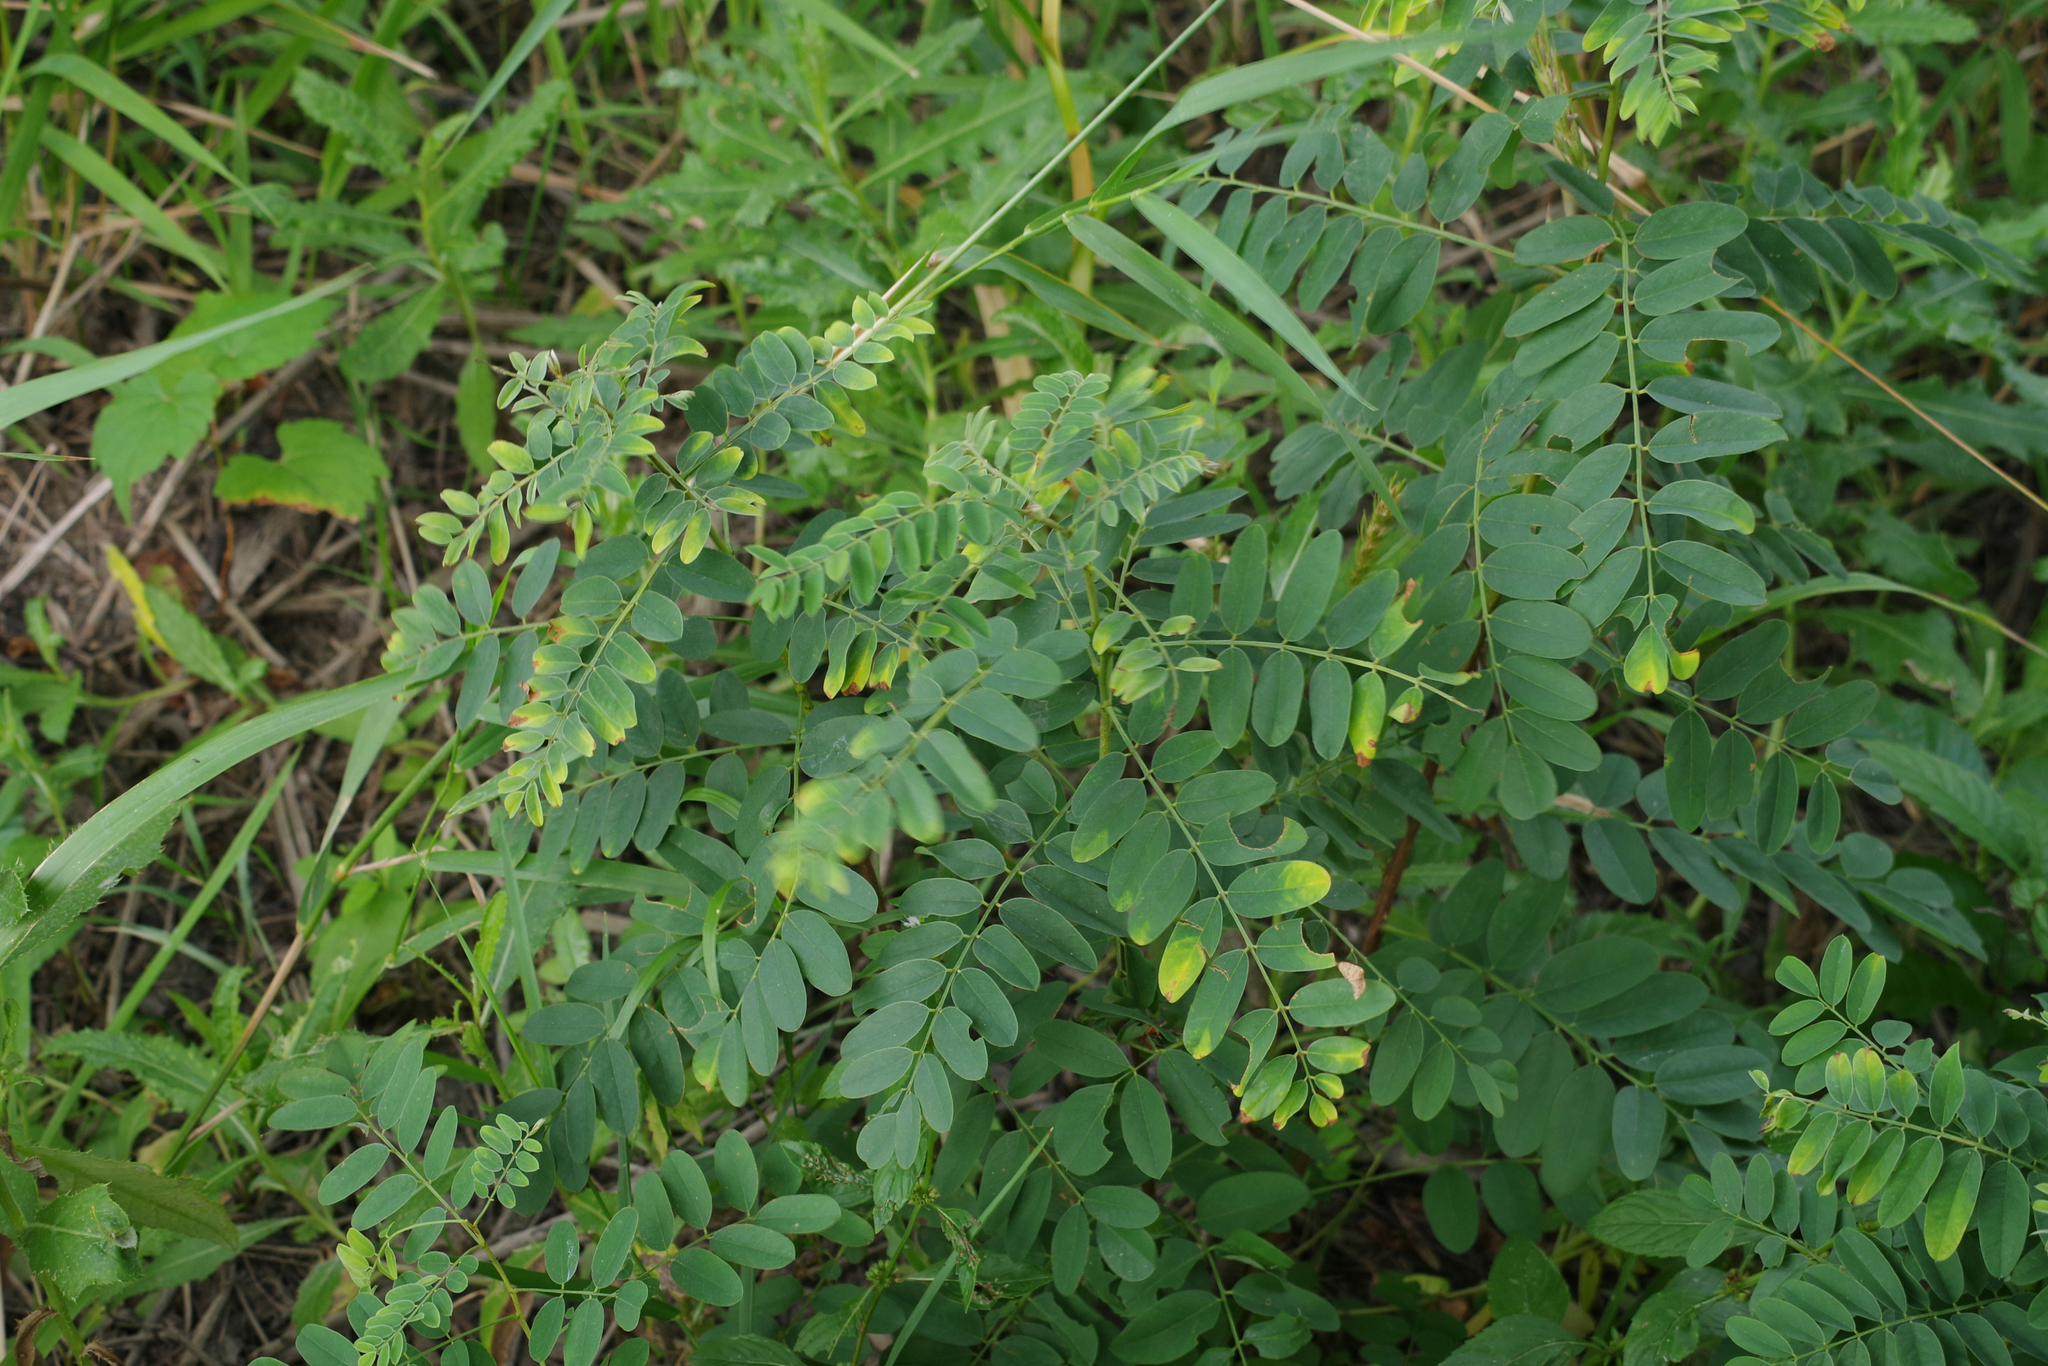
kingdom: Plantae
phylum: Tracheophyta
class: Magnoliopsida
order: Fabales
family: Fabaceae
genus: Caragana
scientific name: Caragana arborescens
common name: Siberian peashrub
